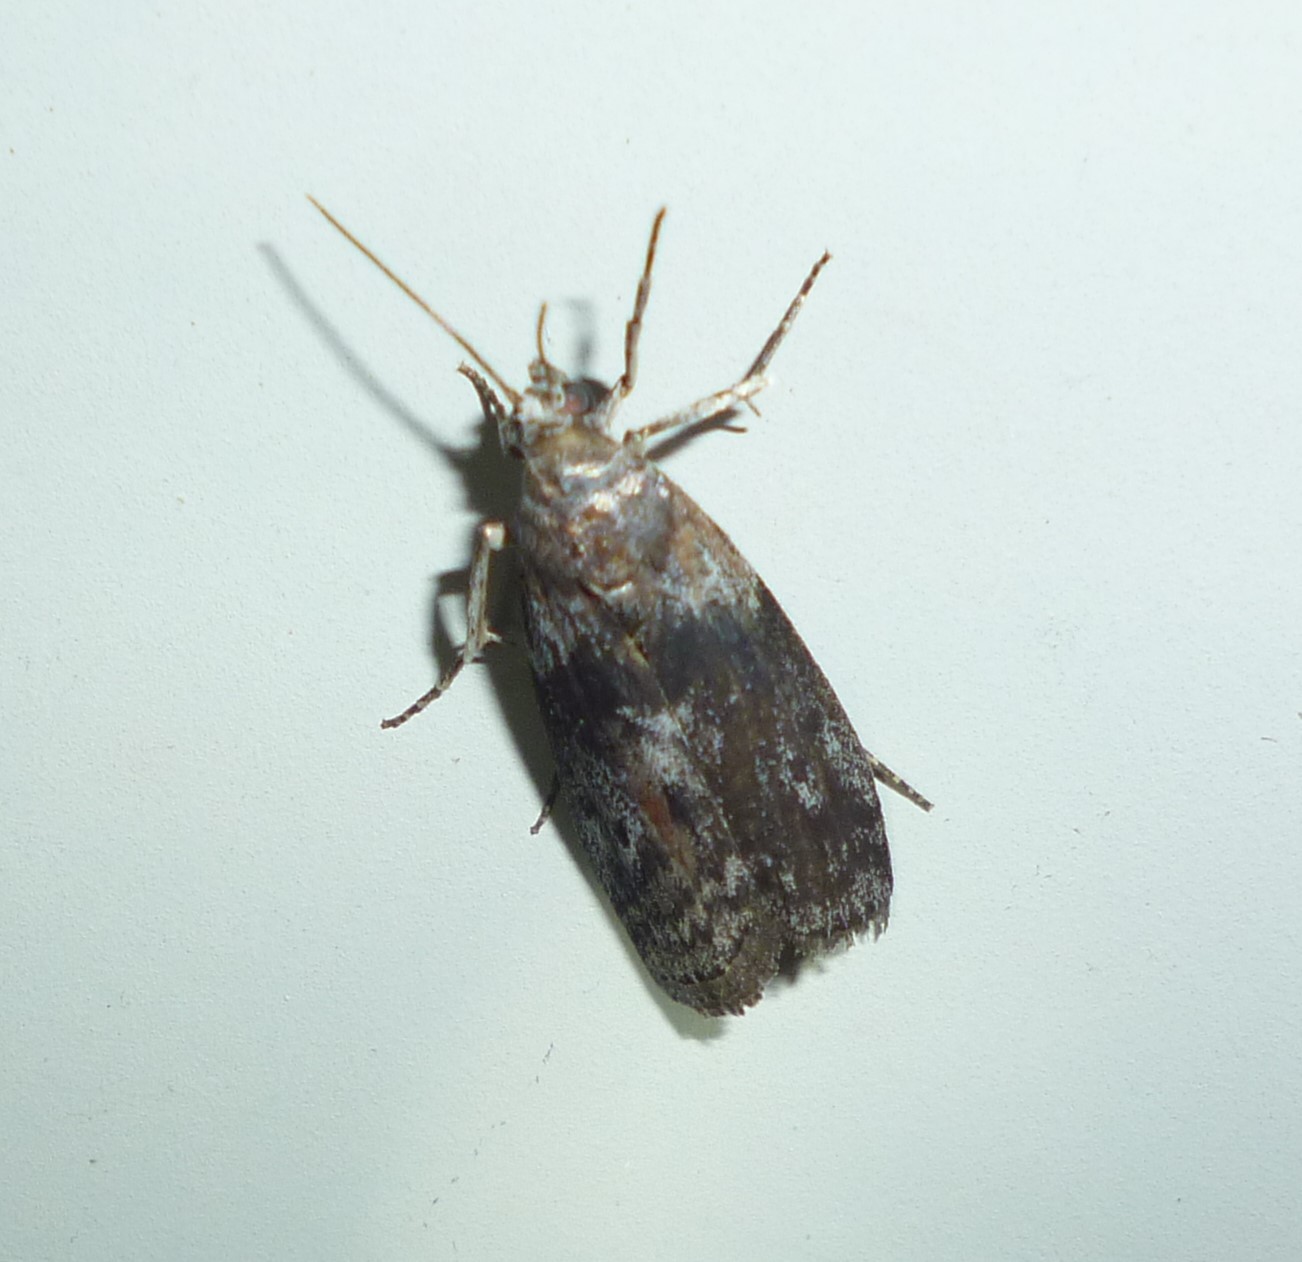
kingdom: Animalia
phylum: Arthropoda
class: Insecta
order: Lepidoptera
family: Pyralidae
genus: Sciota
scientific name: Sciota subcaesiella
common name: Locust leafroller
